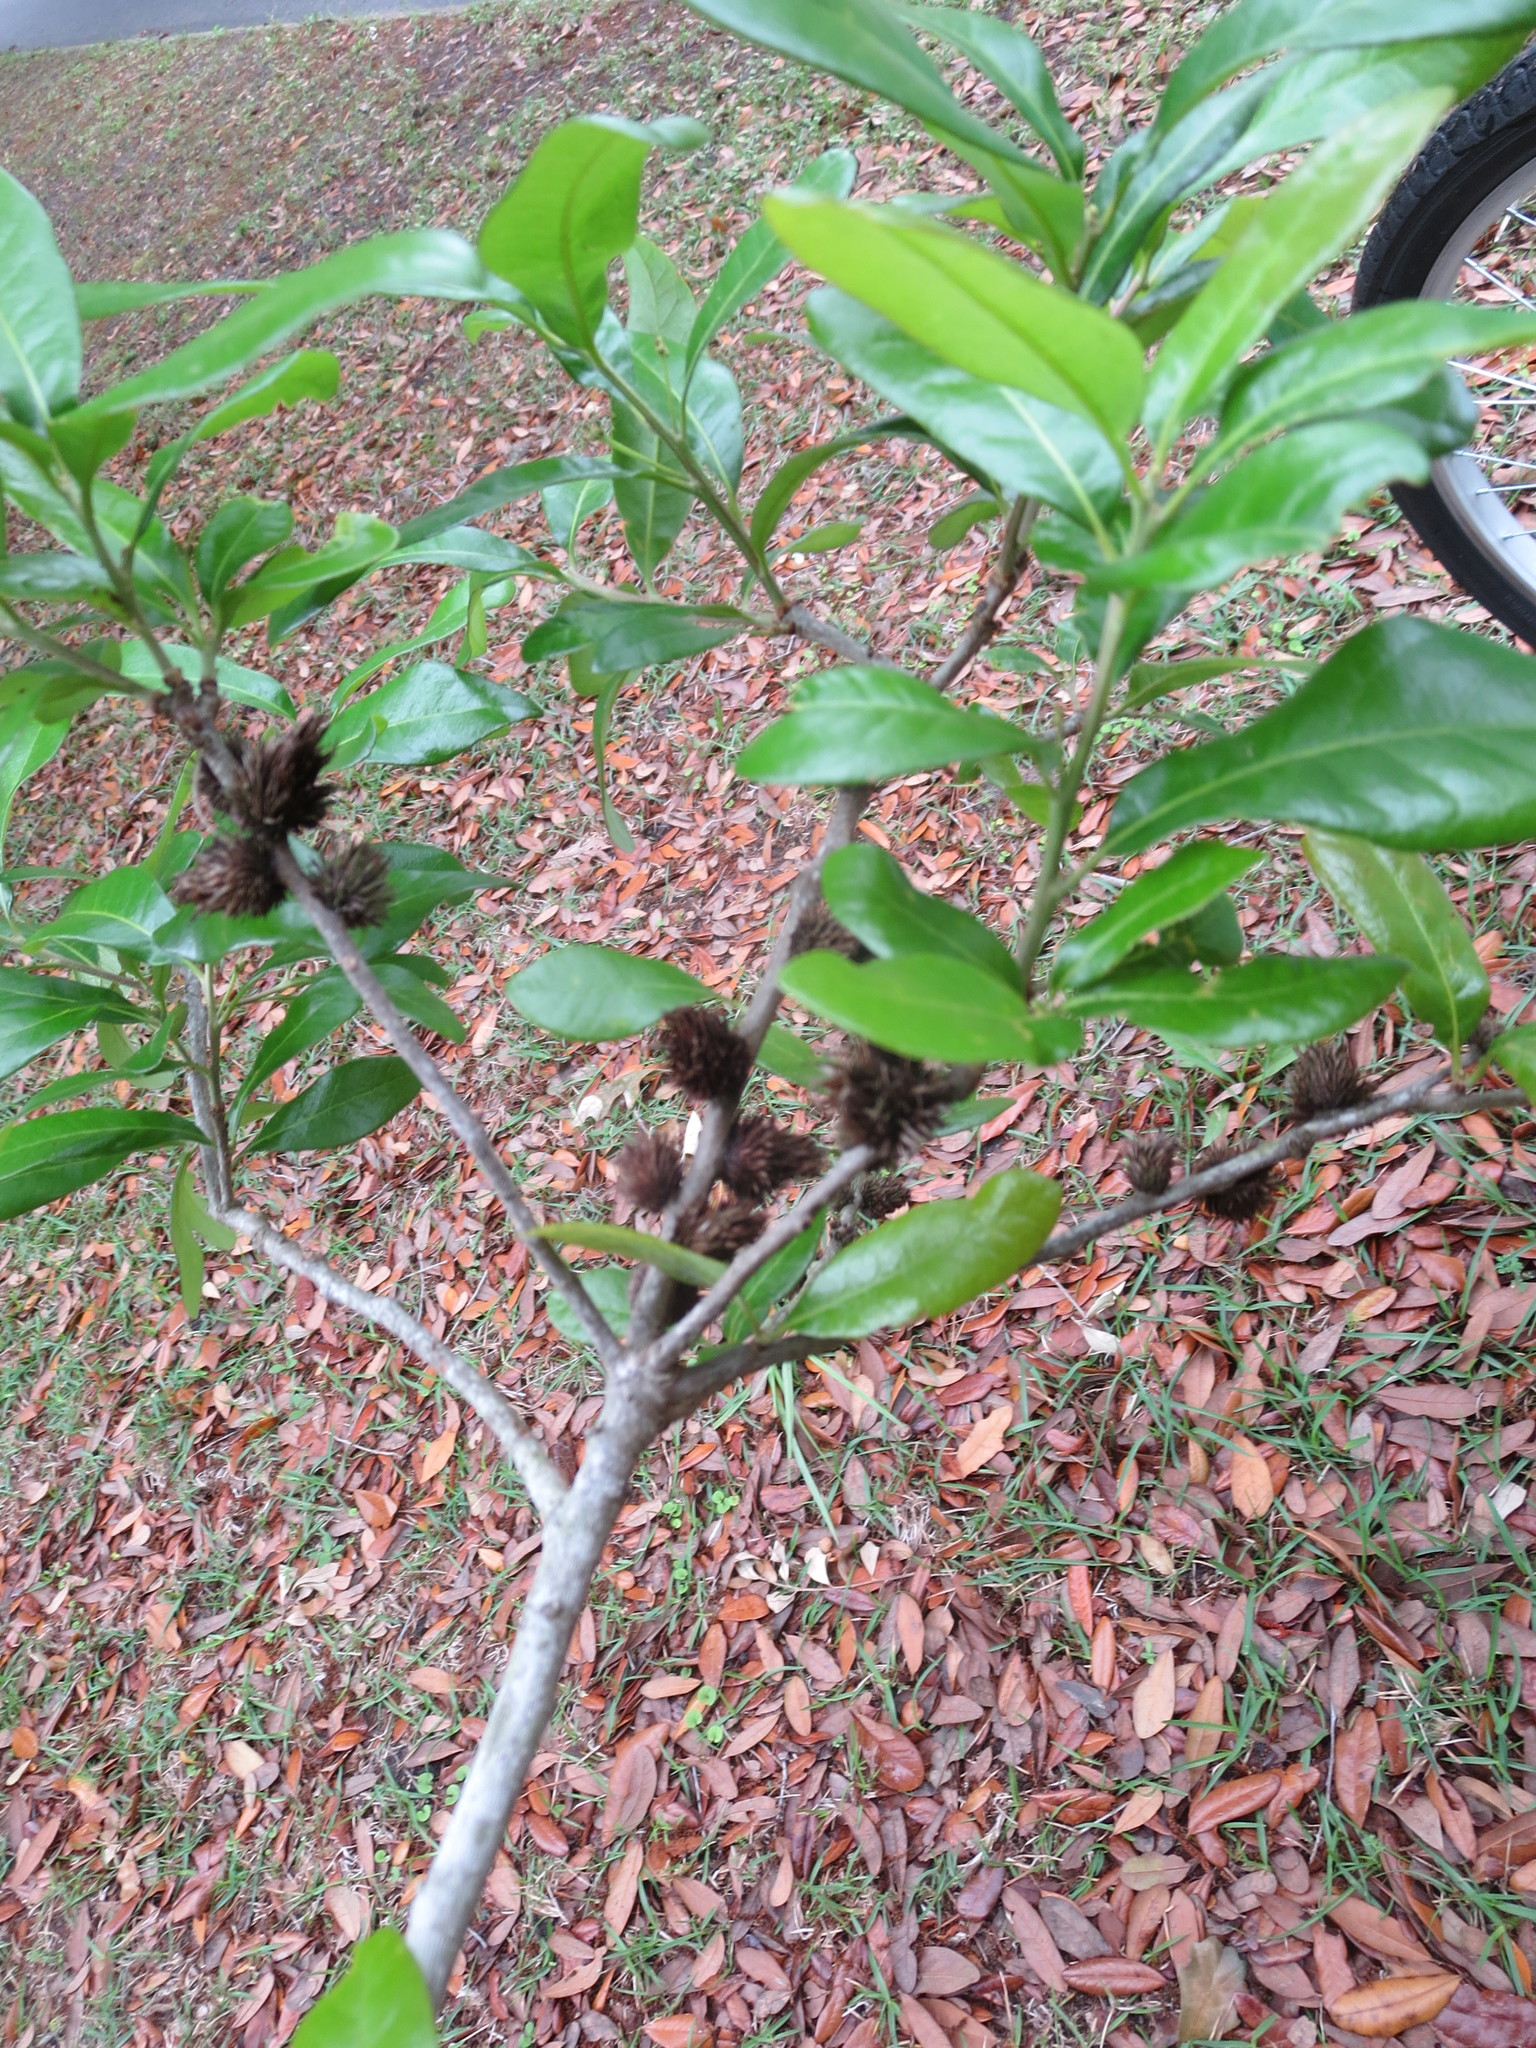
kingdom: Animalia
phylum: Arthropoda
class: Insecta
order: Hymenoptera
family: Cynipidae
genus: Andricus
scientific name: Andricus quercusfoliatus
